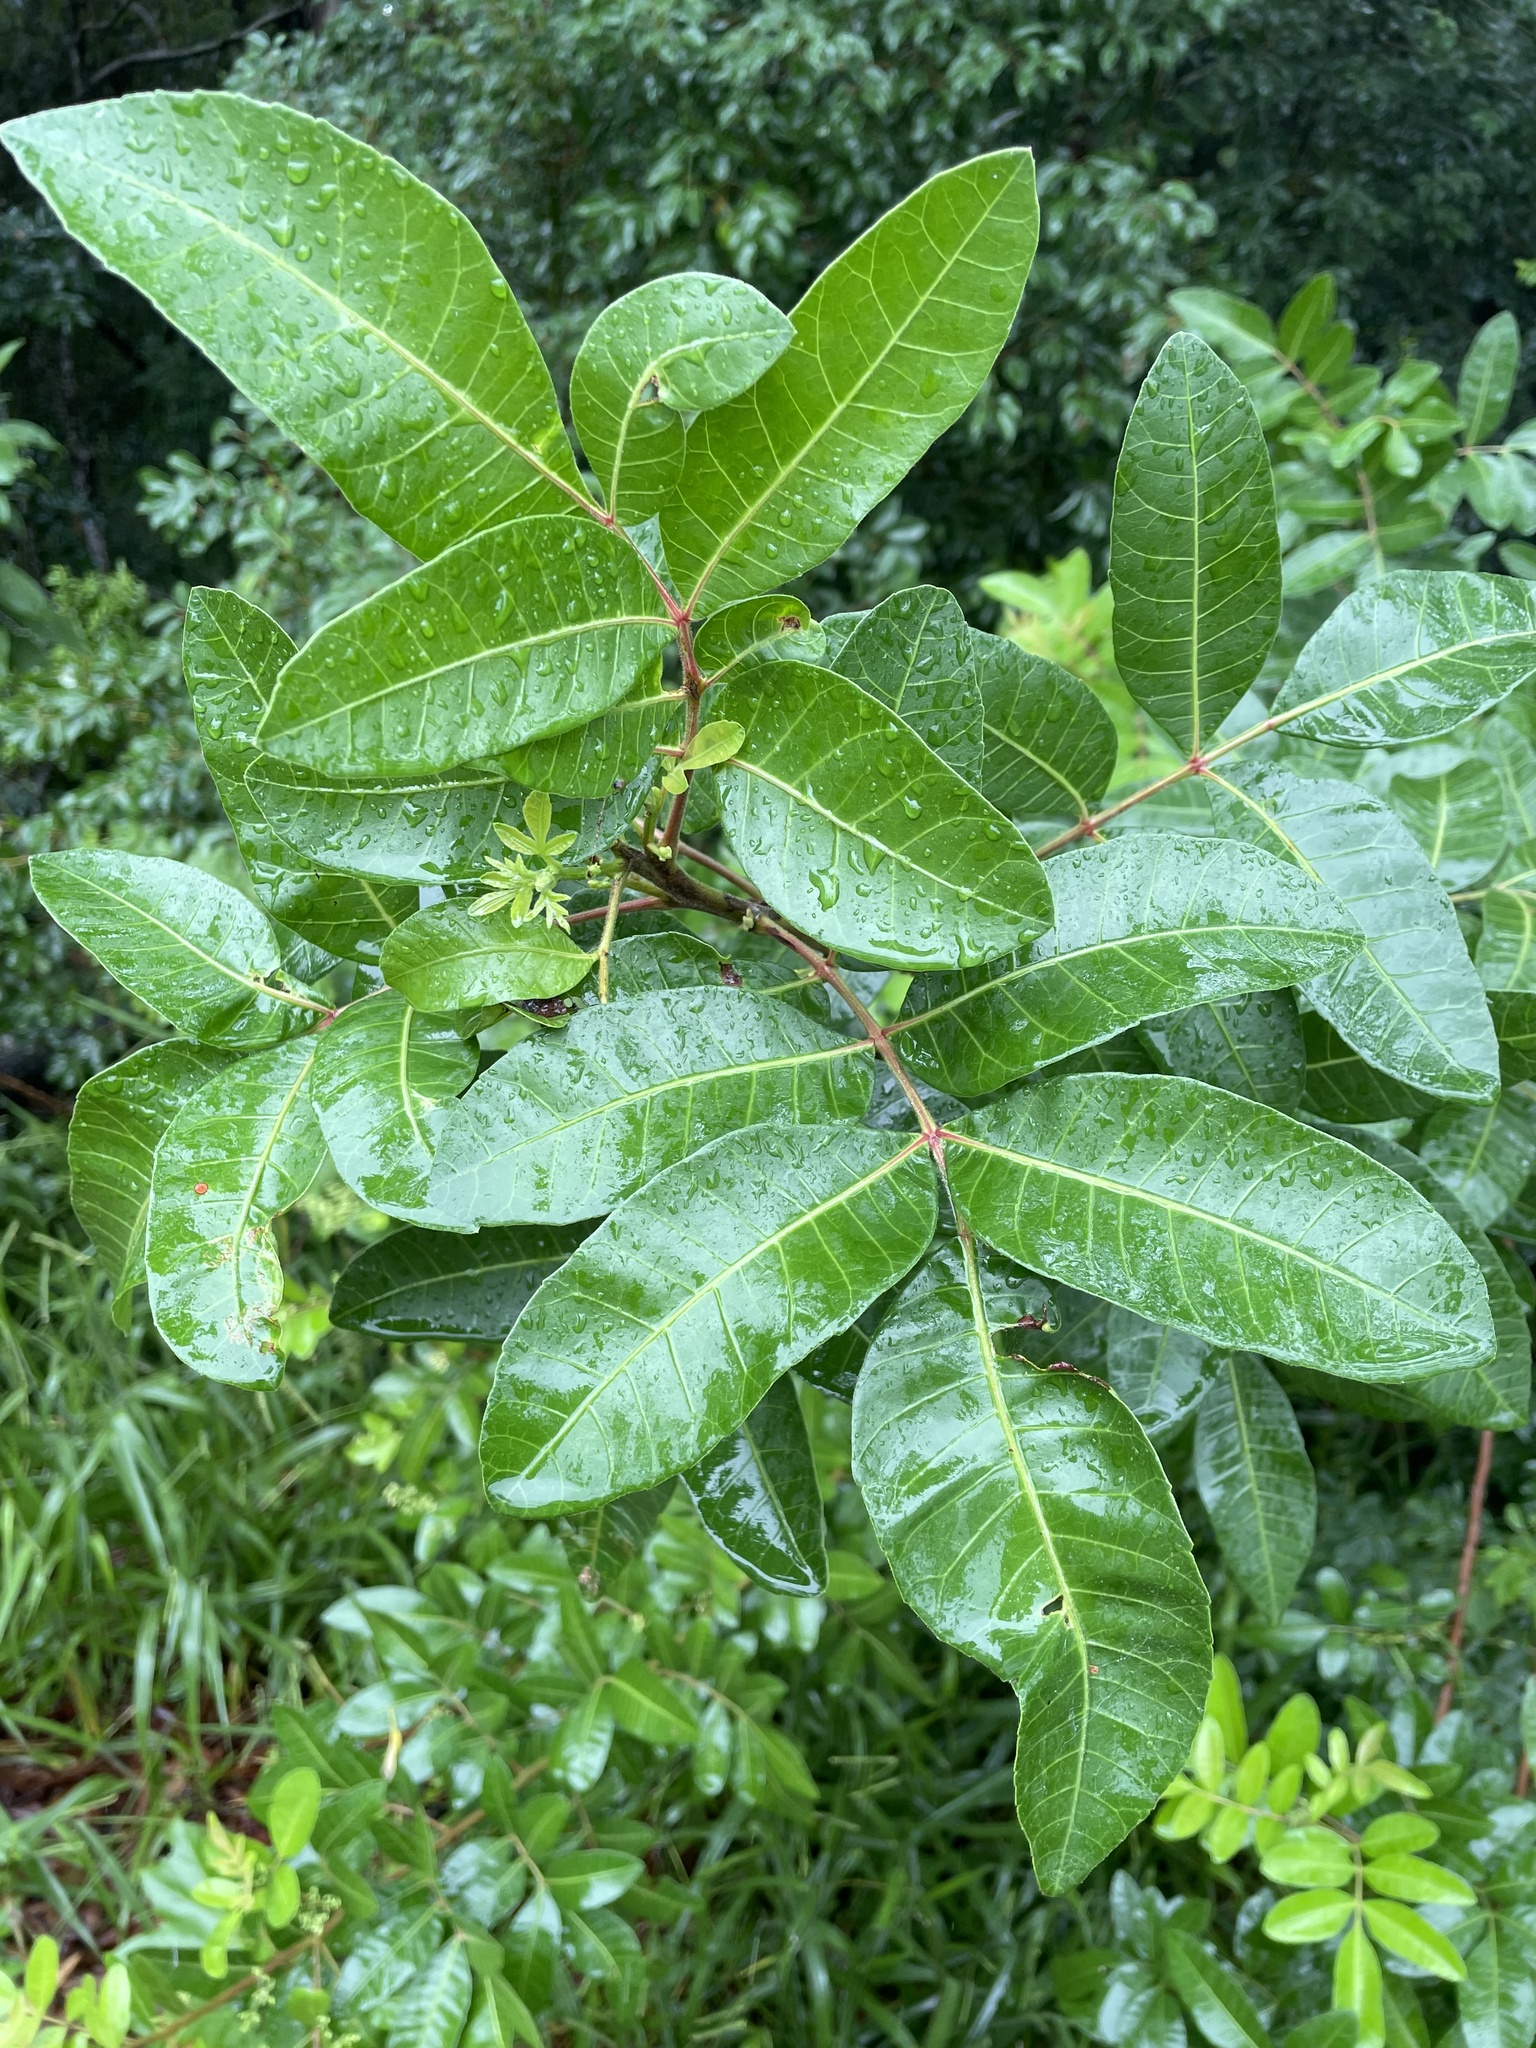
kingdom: Plantae
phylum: Tracheophyta
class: Magnoliopsida
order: Sapindales
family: Anacardiaceae
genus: Schinus
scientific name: Schinus terebinthifolia
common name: Brazilian peppertree
